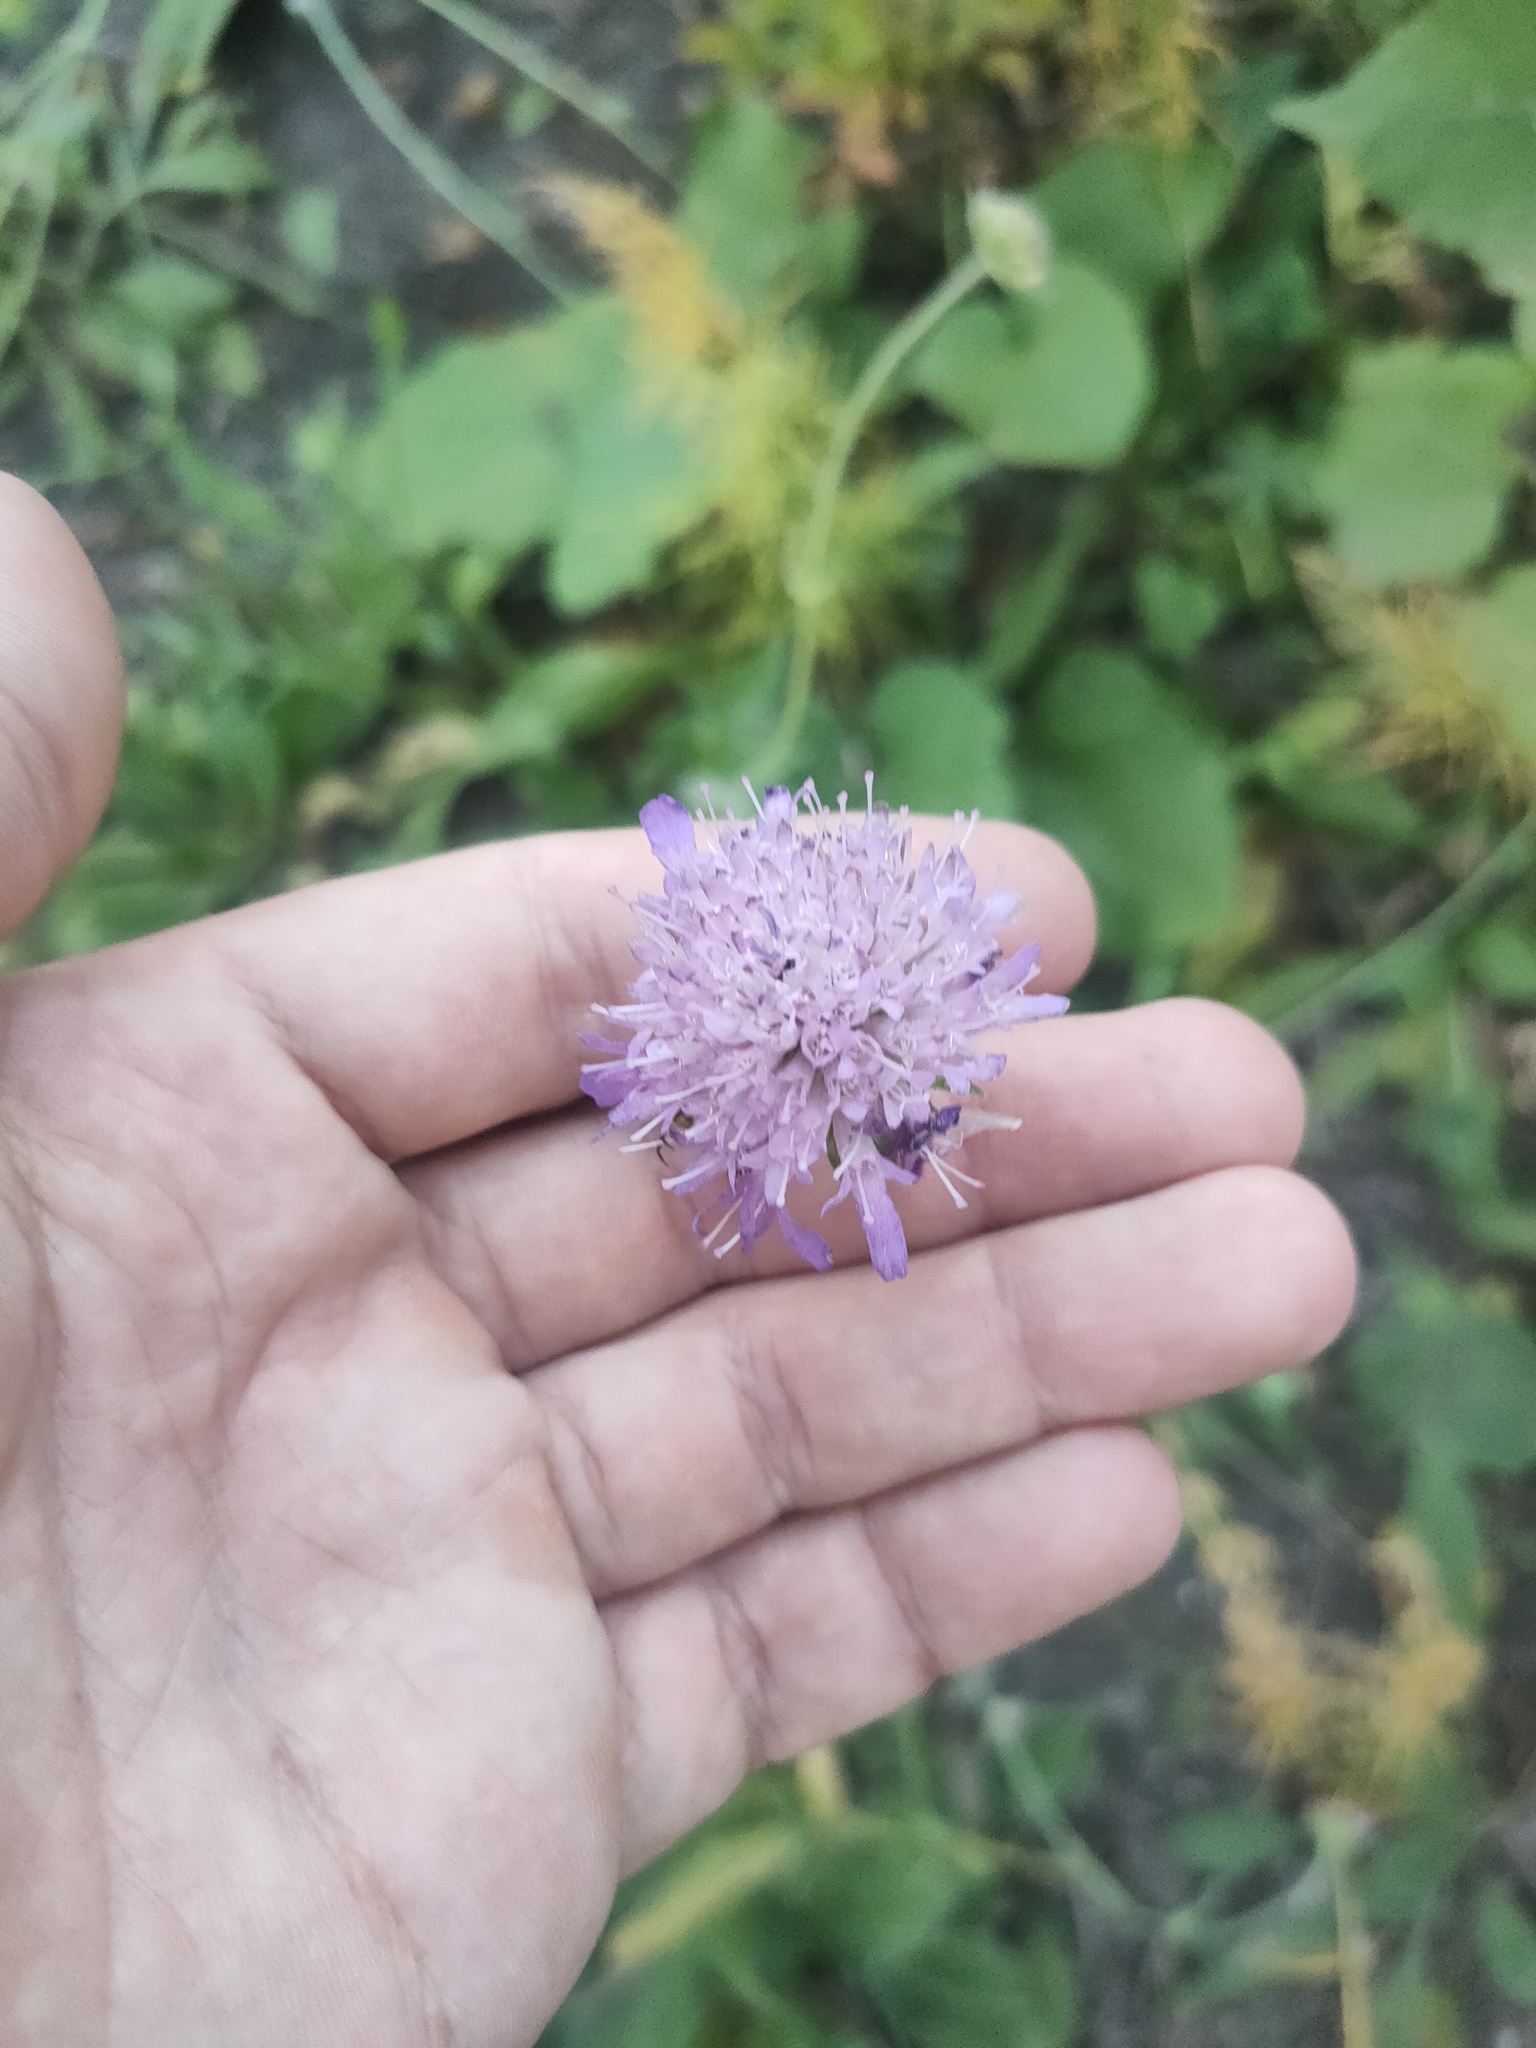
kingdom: Plantae
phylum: Tracheophyta
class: Magnoliopsida
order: Dipsacales
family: Caprifoliaceae
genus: Knautia
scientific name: Knautia arvensis
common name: Field scabiosa
